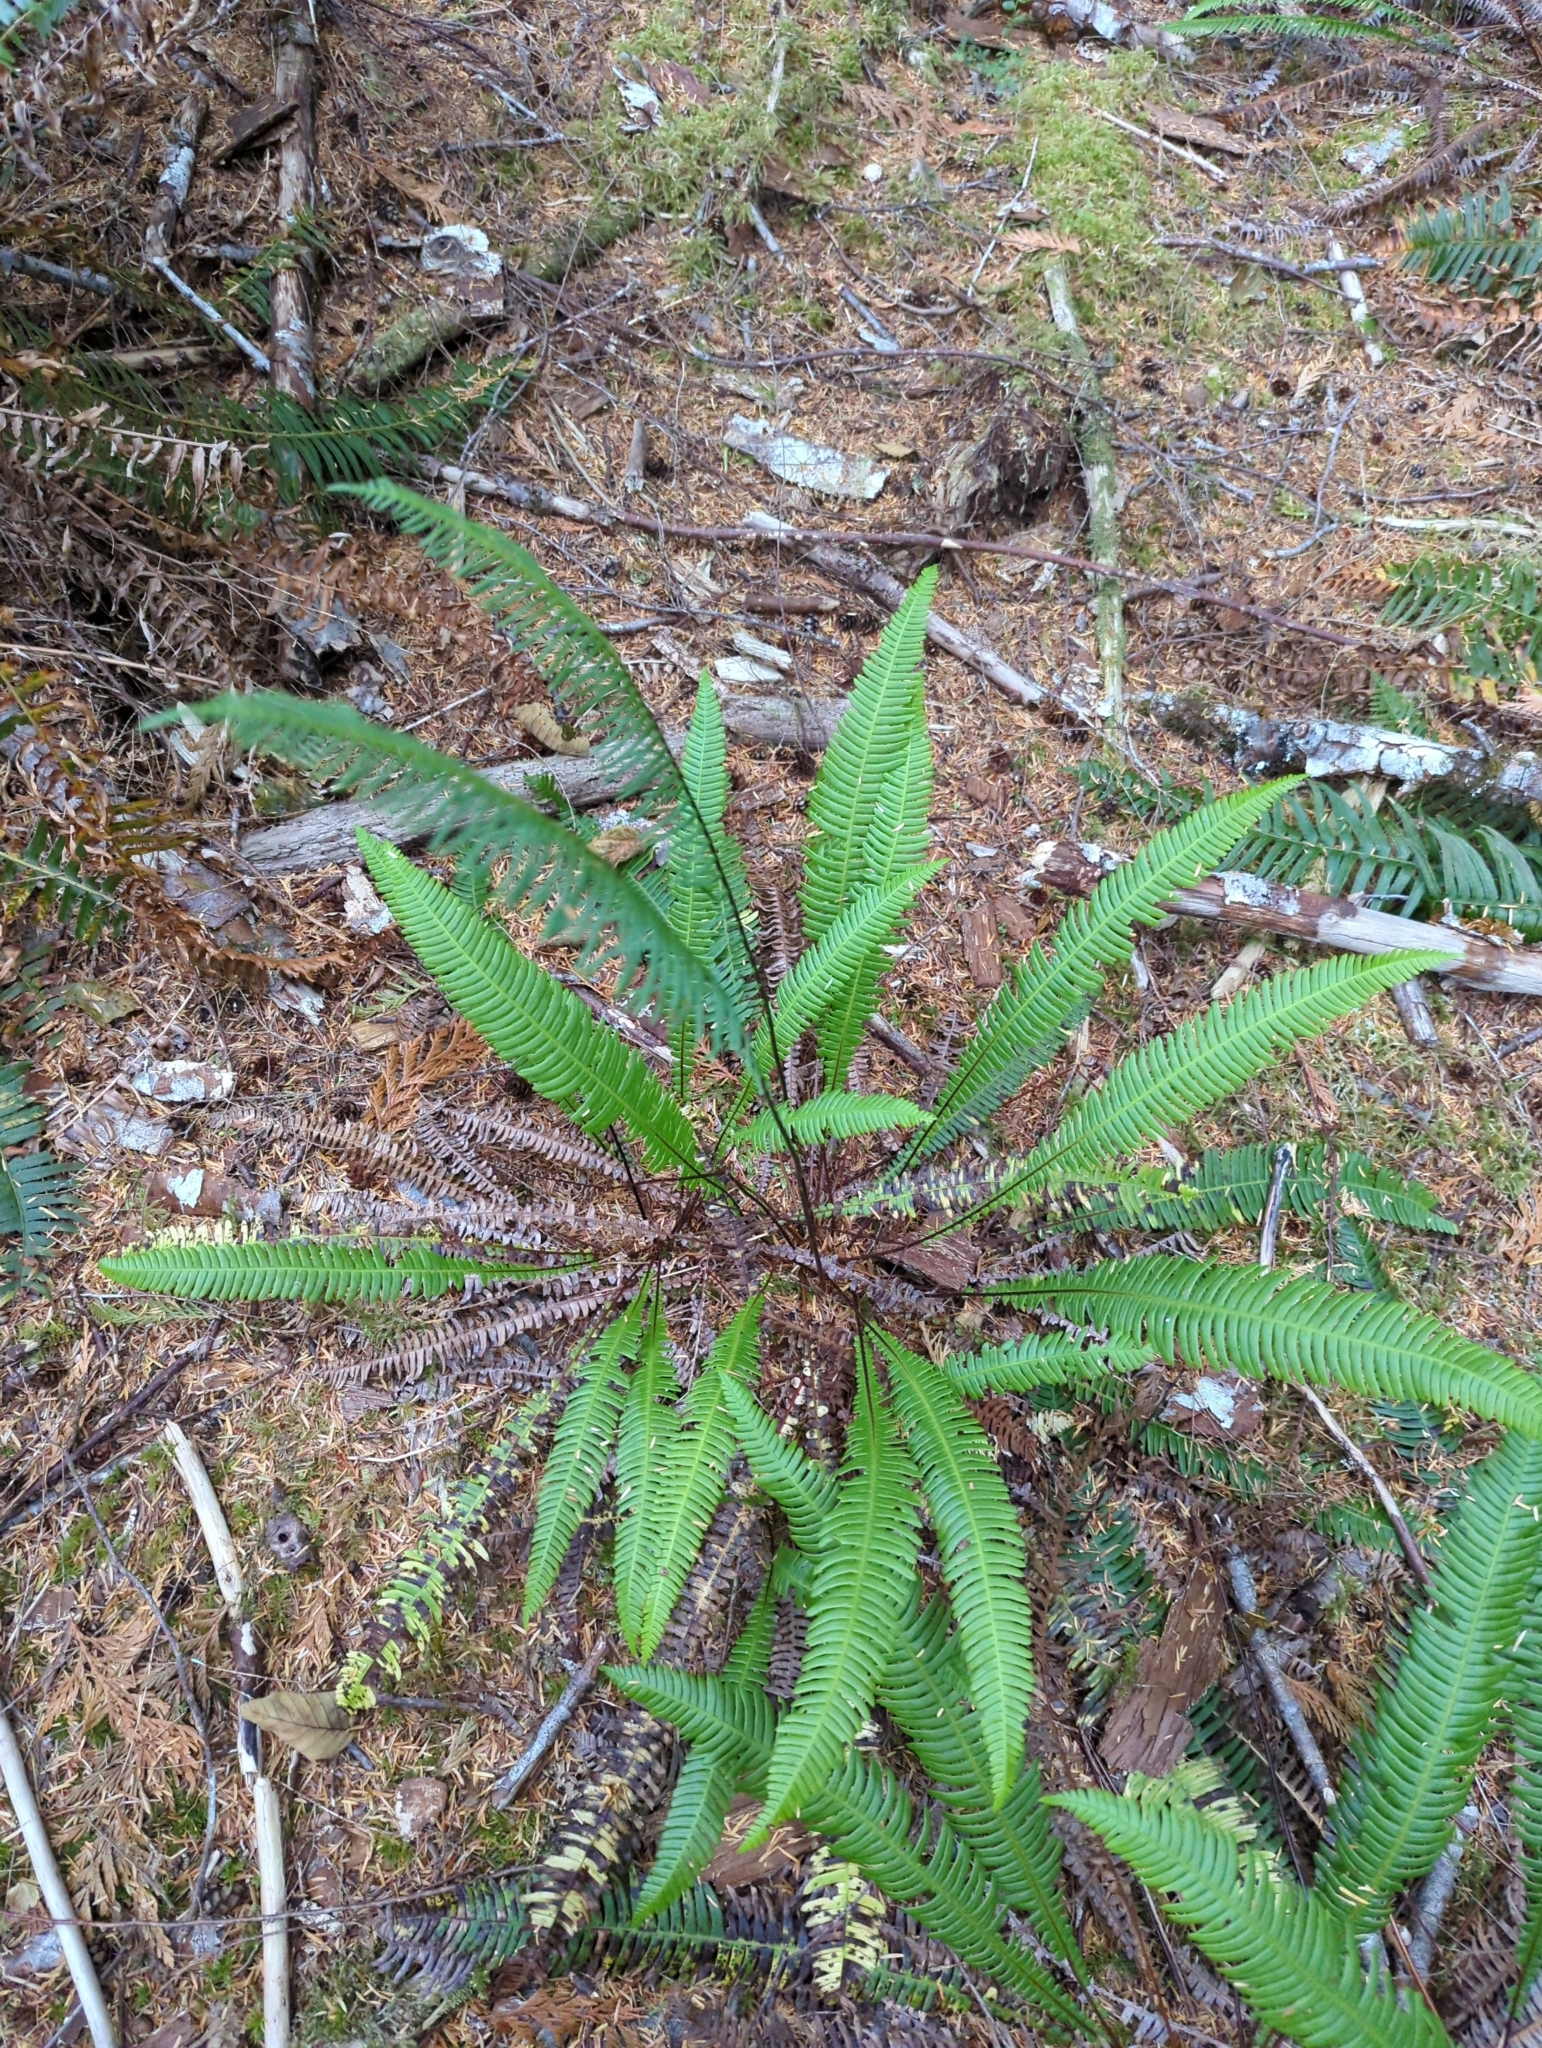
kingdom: Plantae
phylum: Tracheophyta
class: Polypodiopsida
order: Polypodiales
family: Blechnaceae
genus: Struthiopteris
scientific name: Struthiopteris spicant
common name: Deer fern
